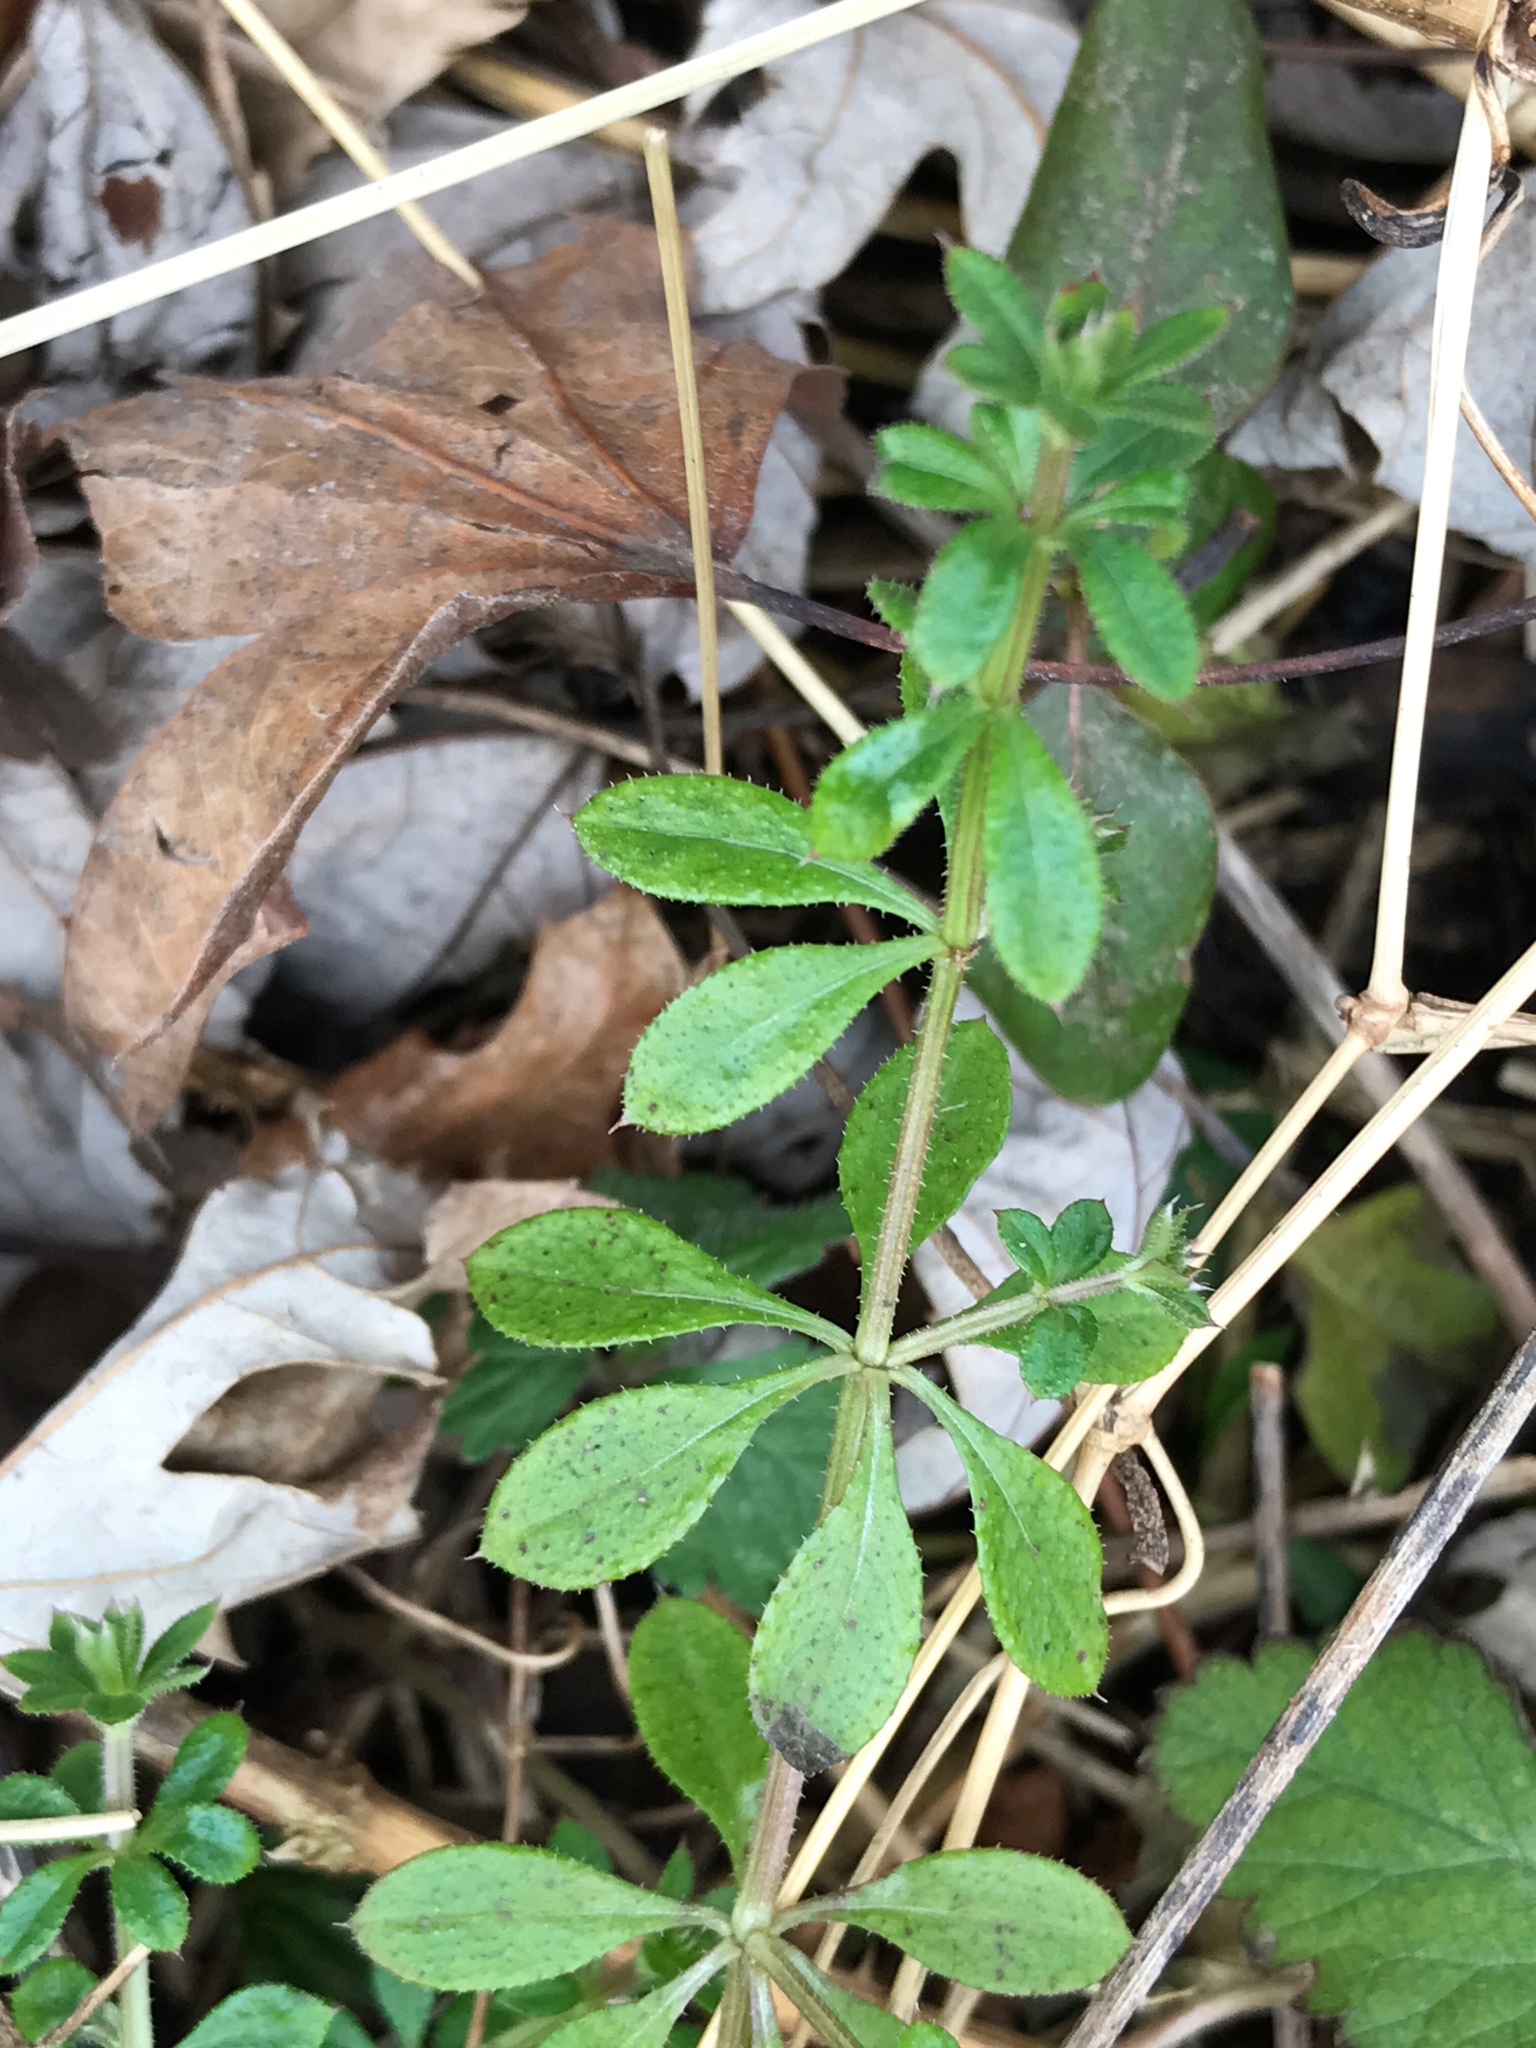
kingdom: Plantae
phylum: Tracheophyta
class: Magnoliopsida
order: Gentianales
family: Rubiaceae
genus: Galium
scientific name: Galium aparine
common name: Cleavers
